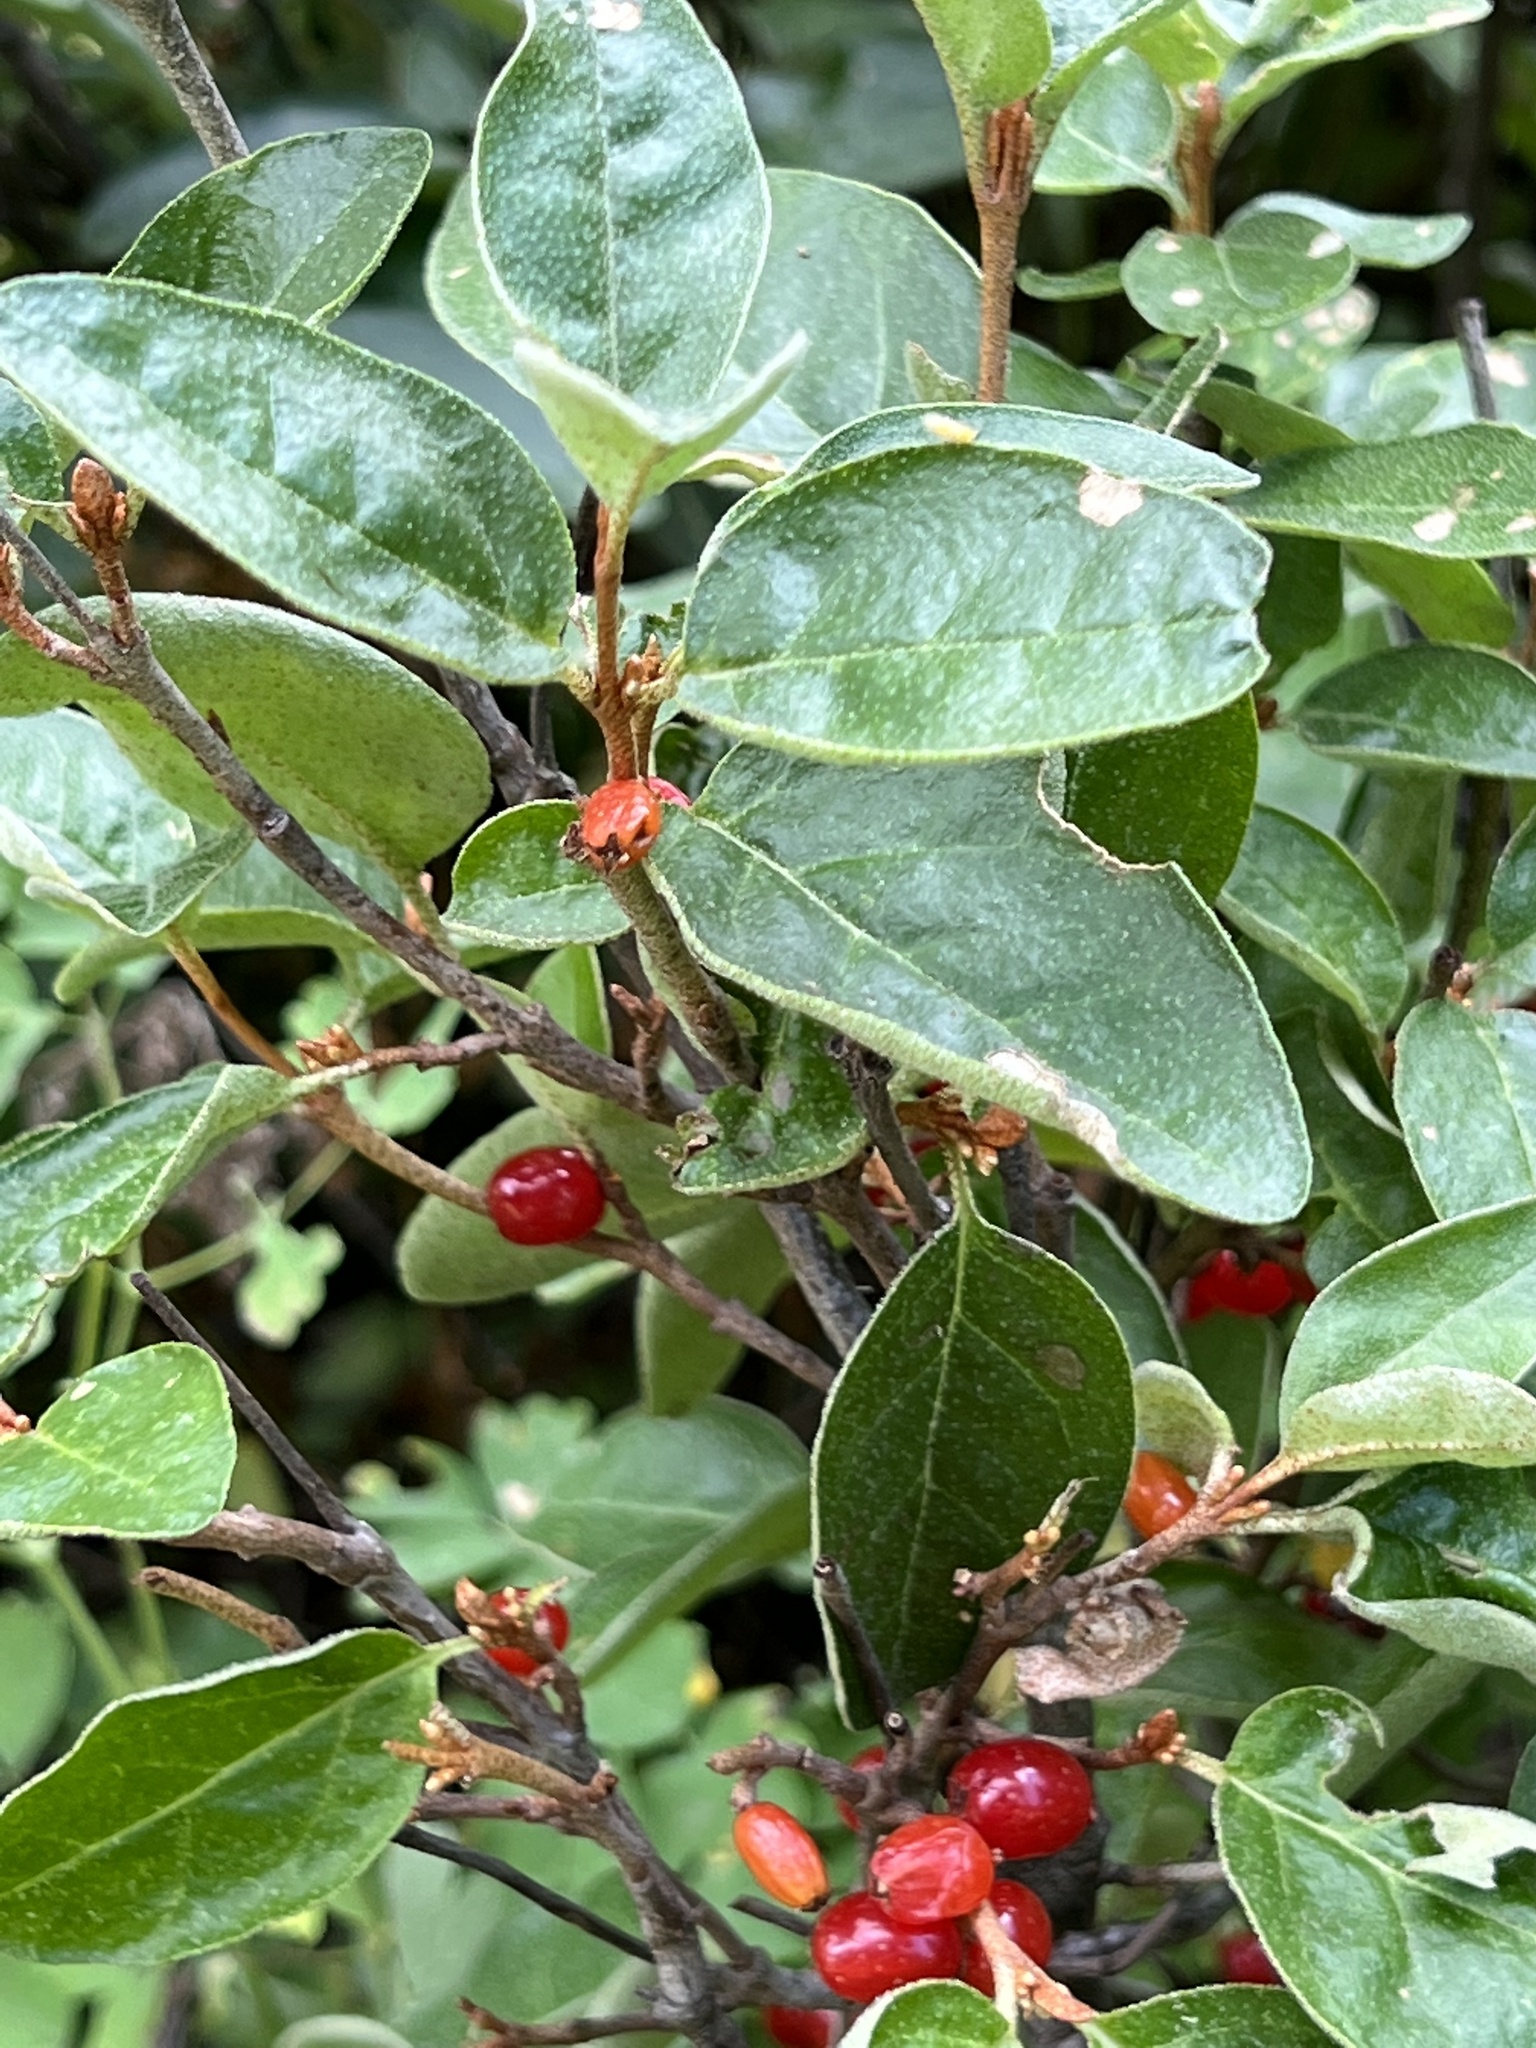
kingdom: Plantae
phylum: Tracheophyta
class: Magnoliopsida
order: Rosales
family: Elaeagnaceae
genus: Shepherdia
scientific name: Shepherdia canadensis
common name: Soapberry
